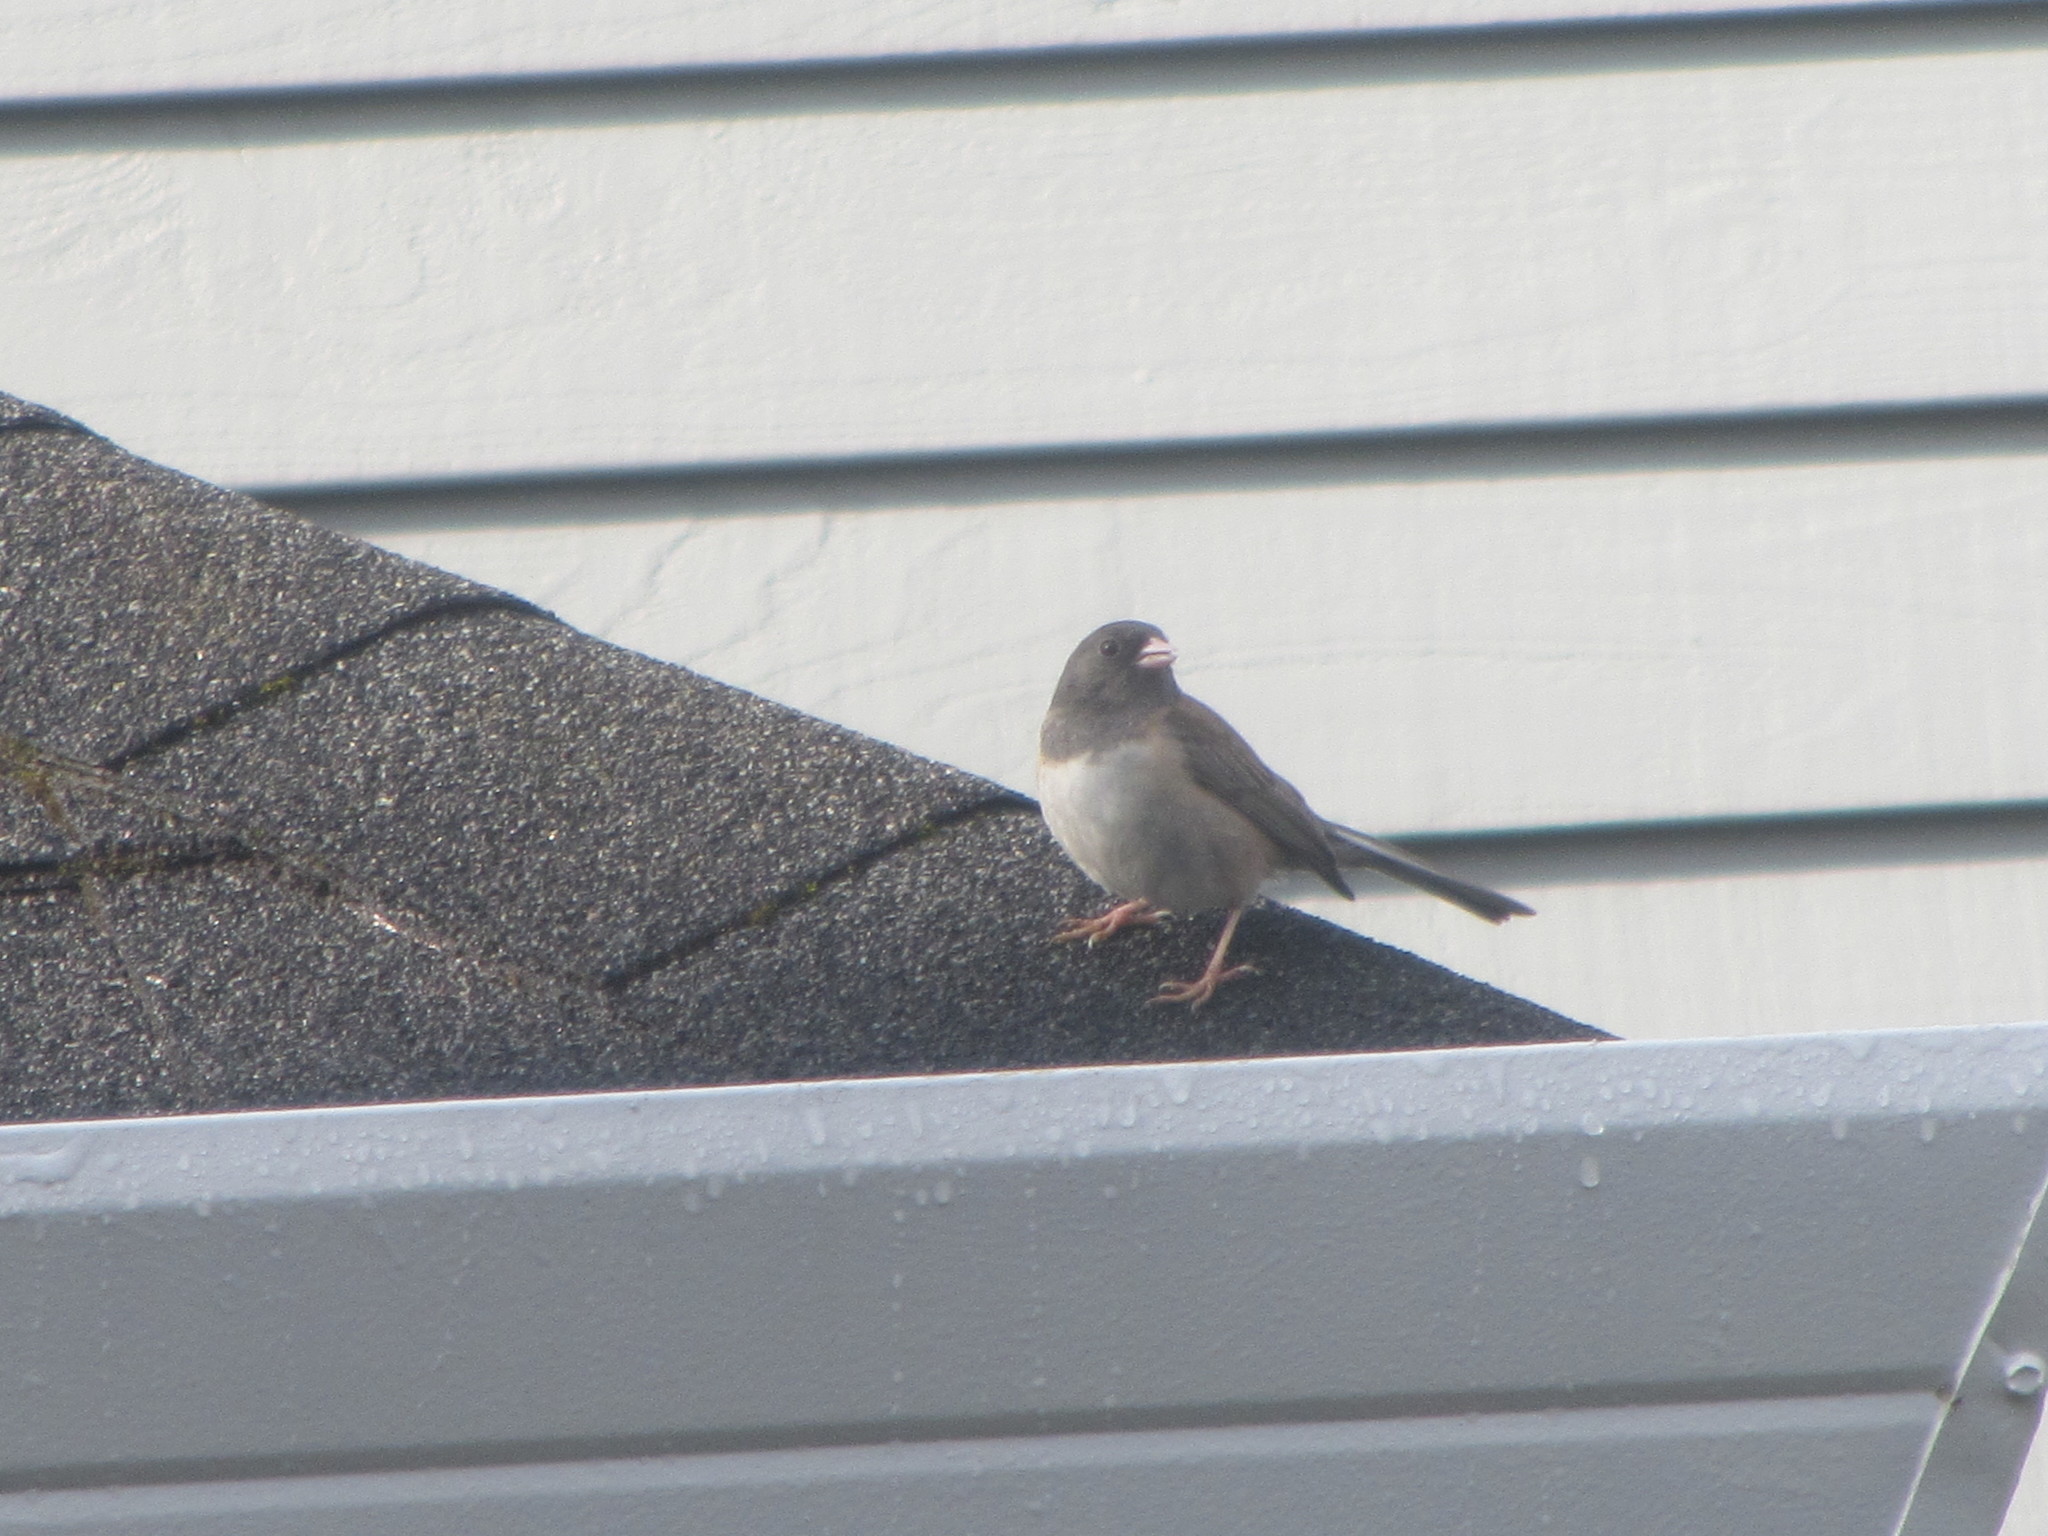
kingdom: Animalia
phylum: Chordata
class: Aves
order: Passeriformes
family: Passerellidae
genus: Junco
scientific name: Junco hyemalis
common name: Dark-eyed junco
